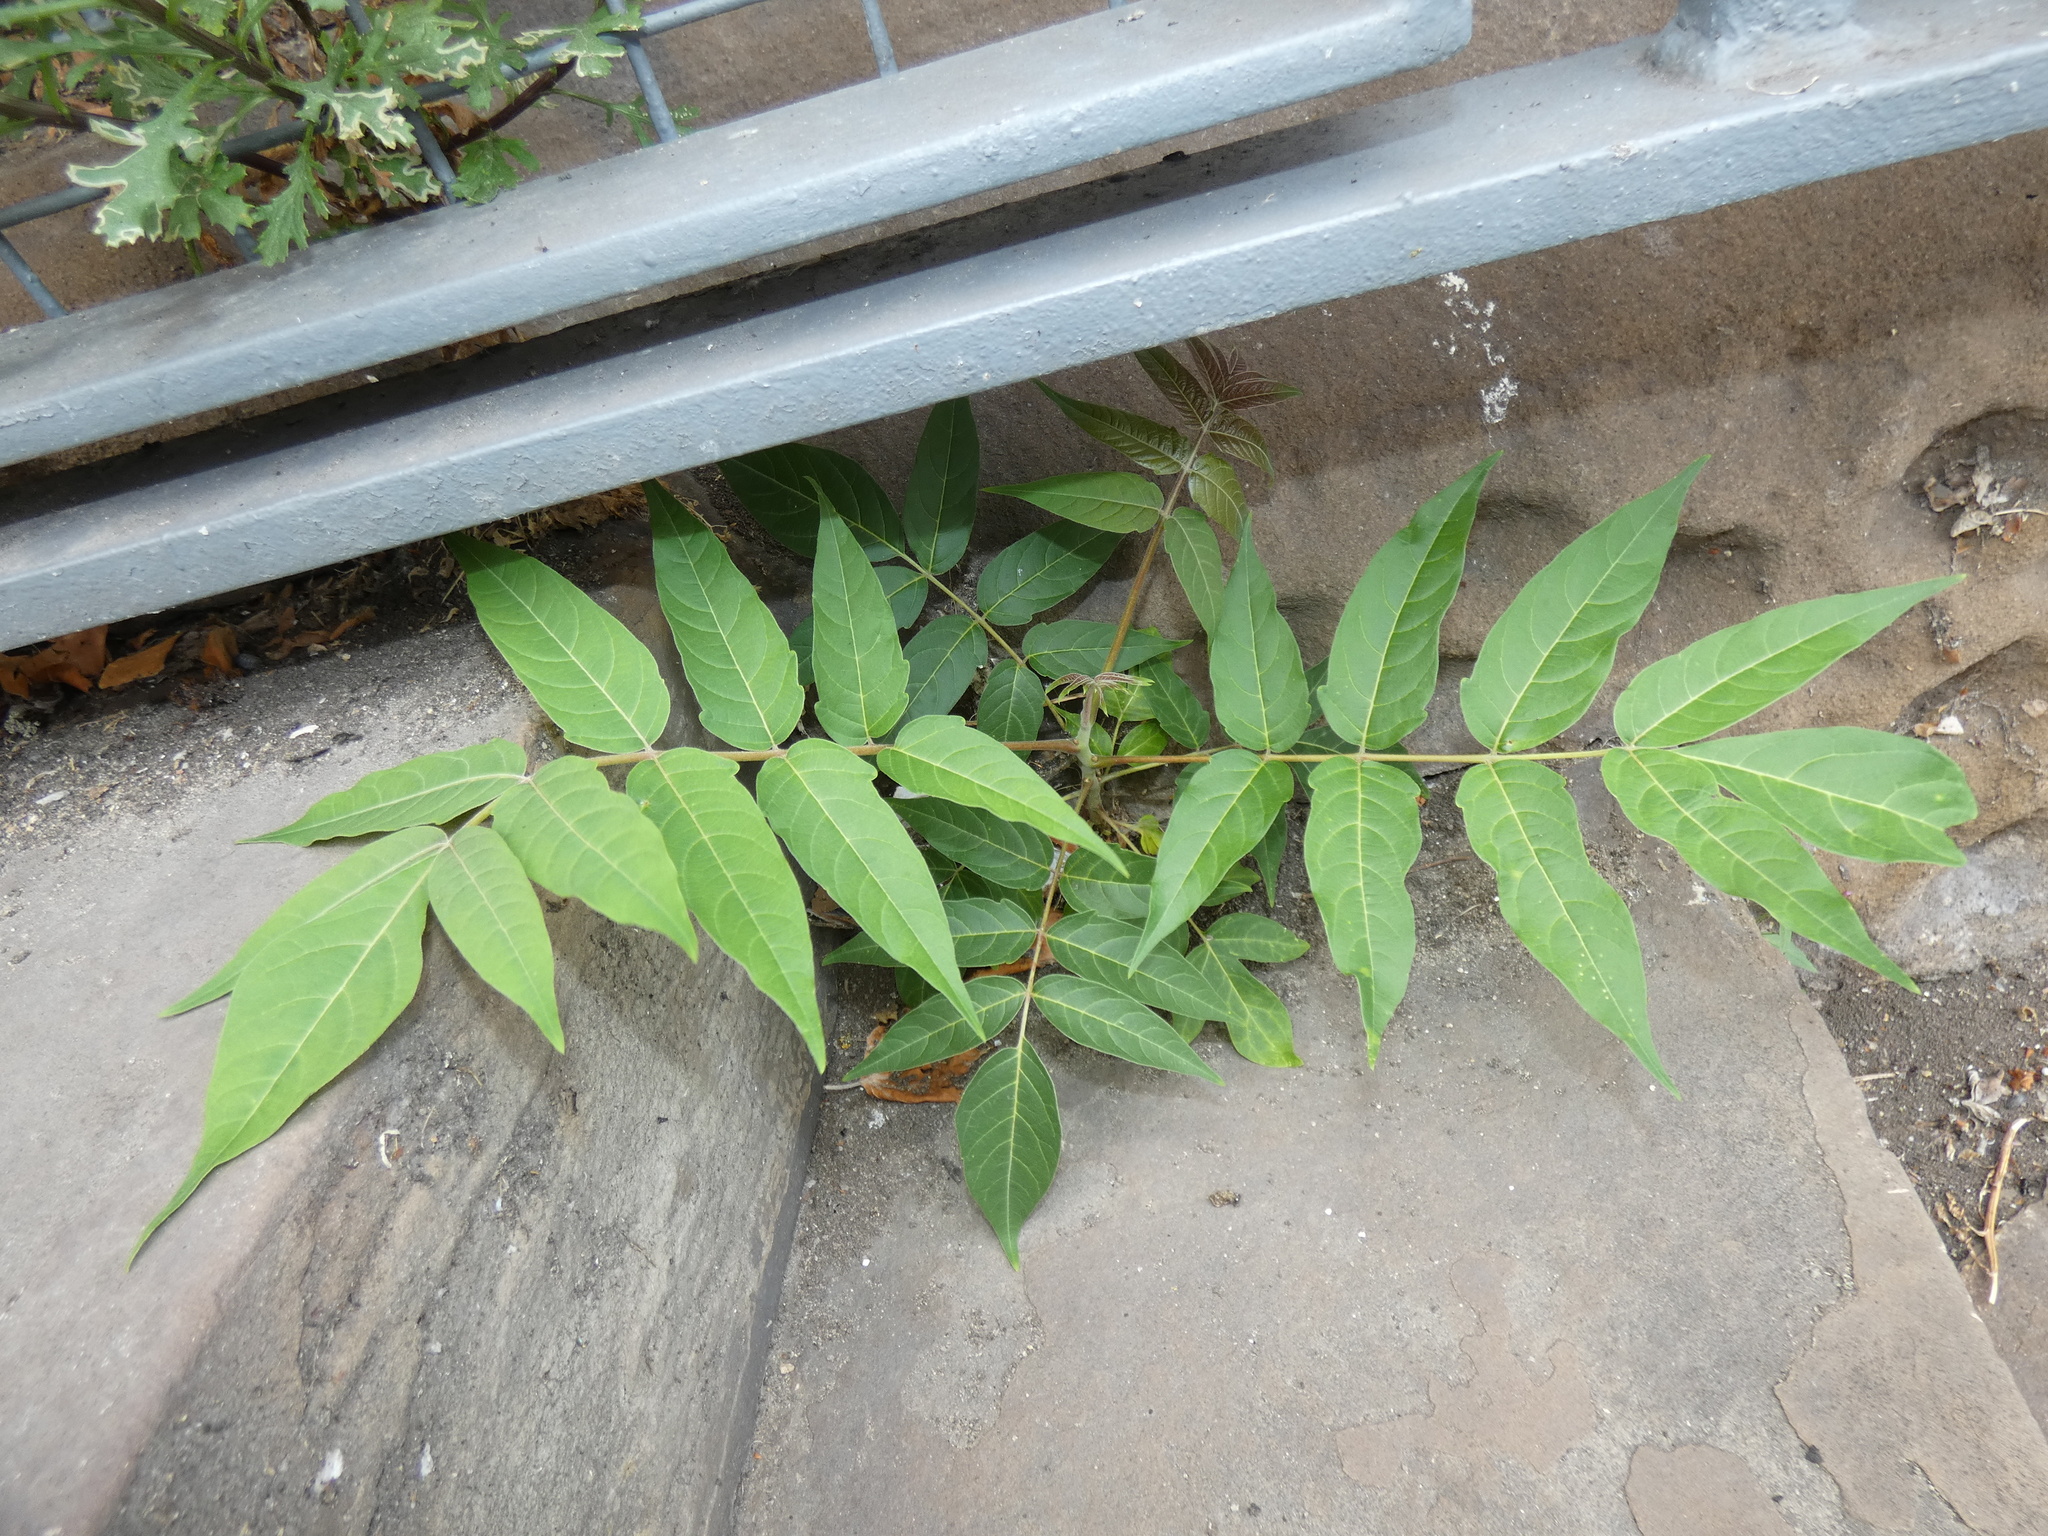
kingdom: Plantae
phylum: Tracheophyta
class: Magnoliopsida
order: Sapindales
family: Simaroubaceae
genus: Ailanthus
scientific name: Ailanthus altissima
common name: Tree-of-heaven
